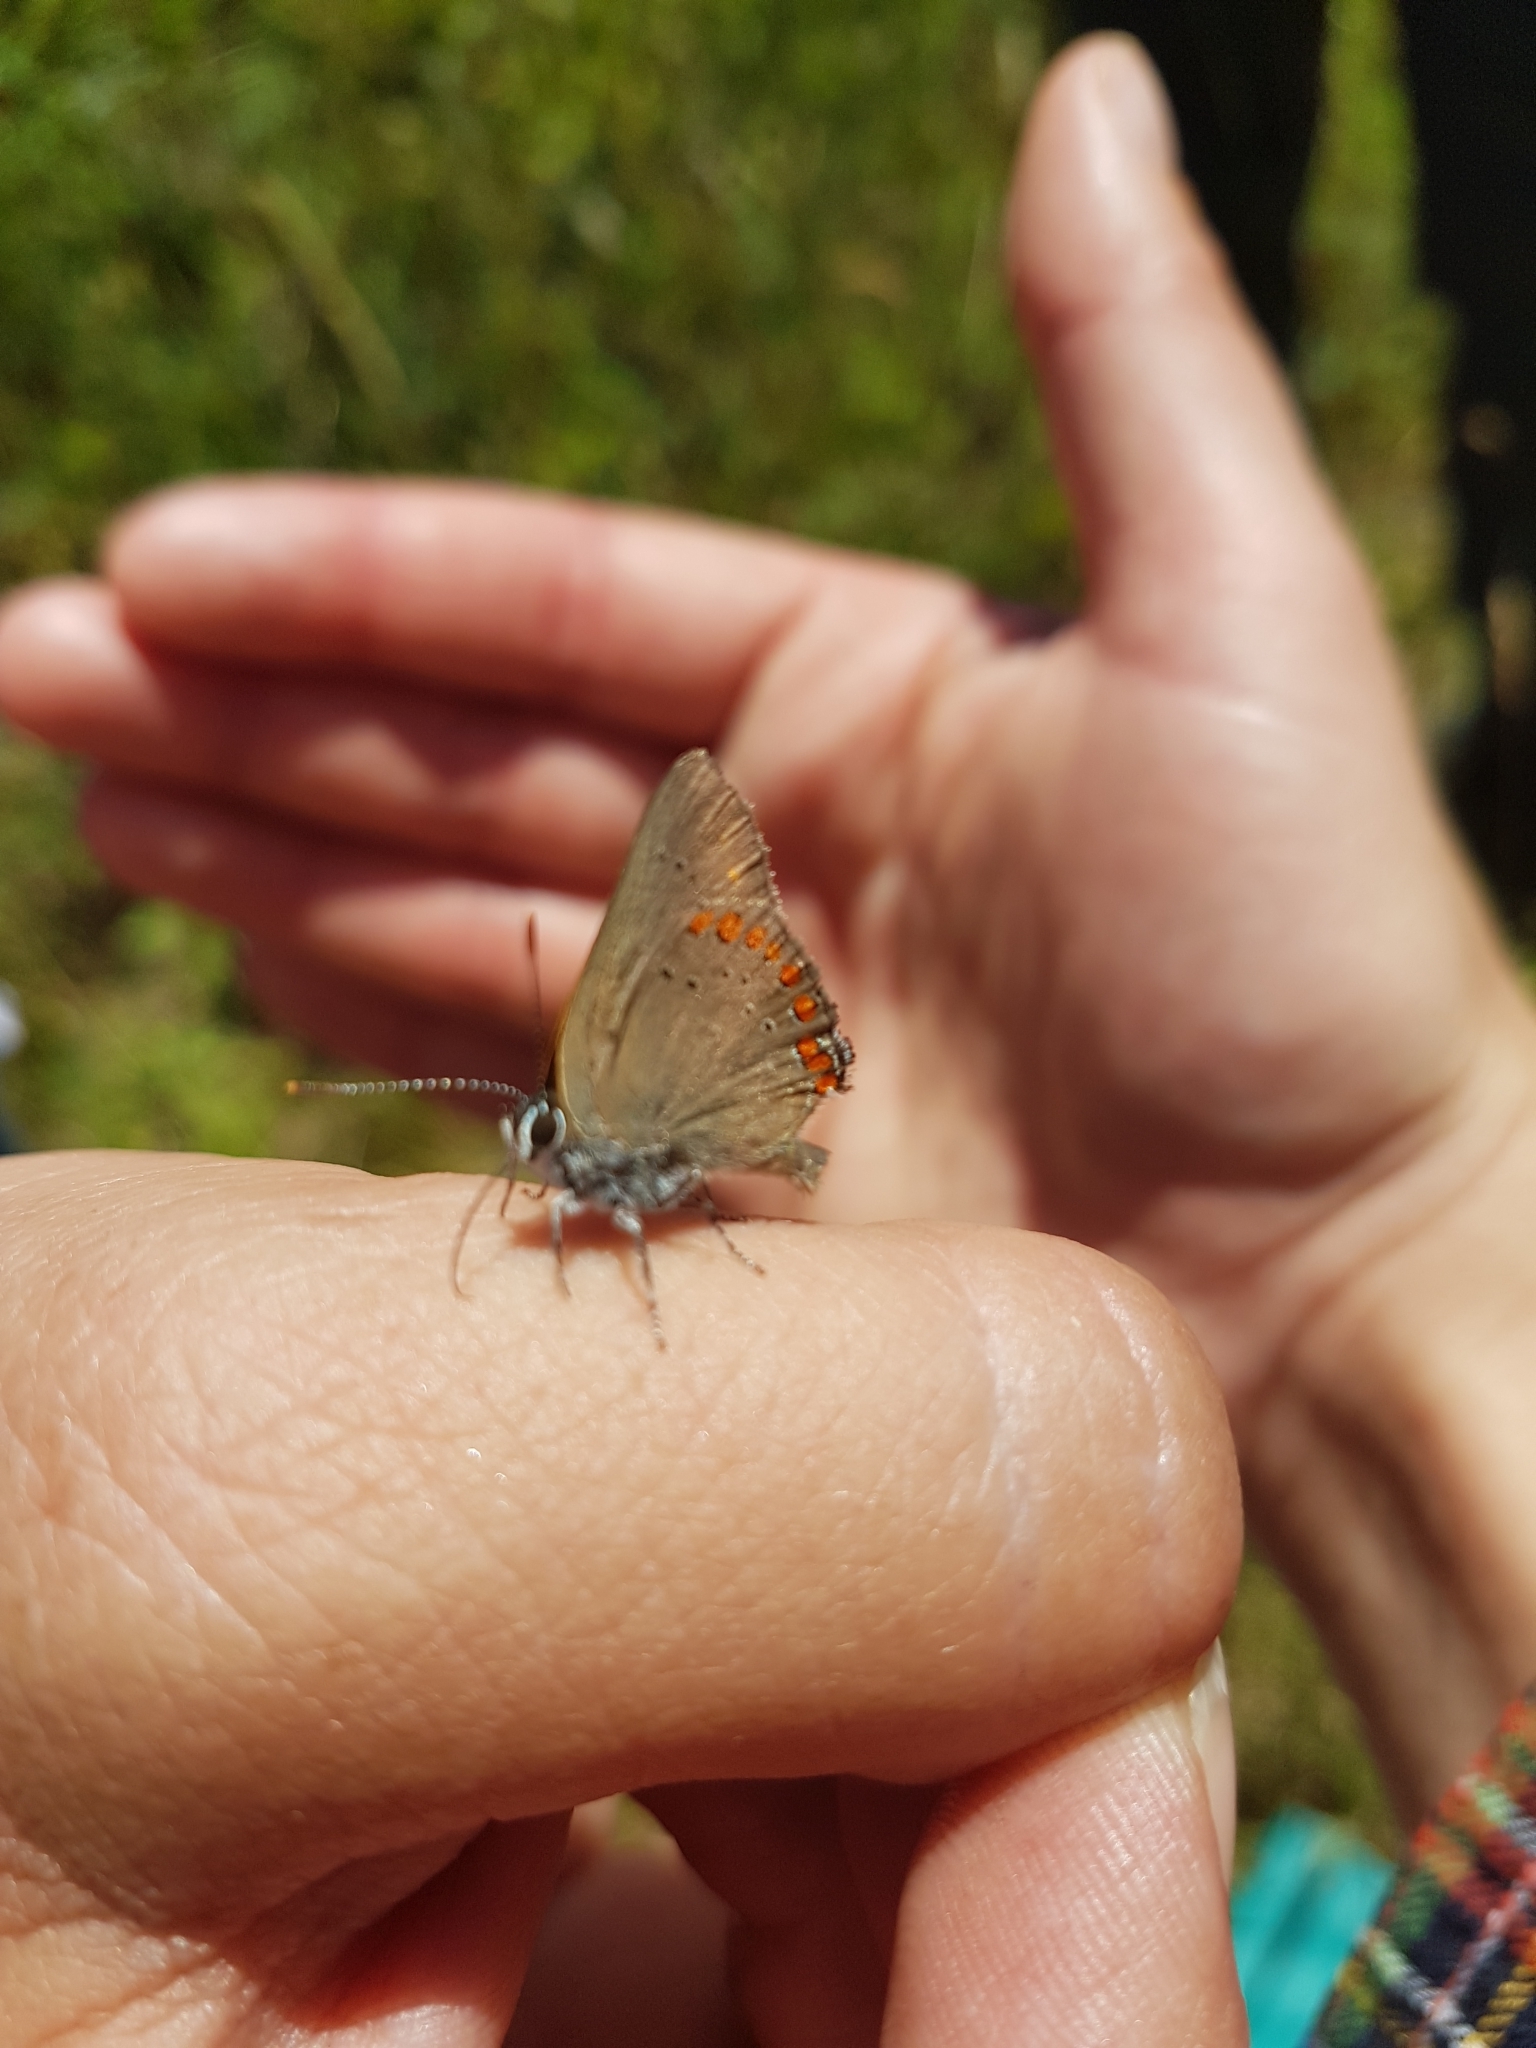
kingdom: Animalia
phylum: Arthropoda
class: Insecta
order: Lepidoptera
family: Lycaenidae
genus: Harkenclenus
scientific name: Harkenclenus titus
